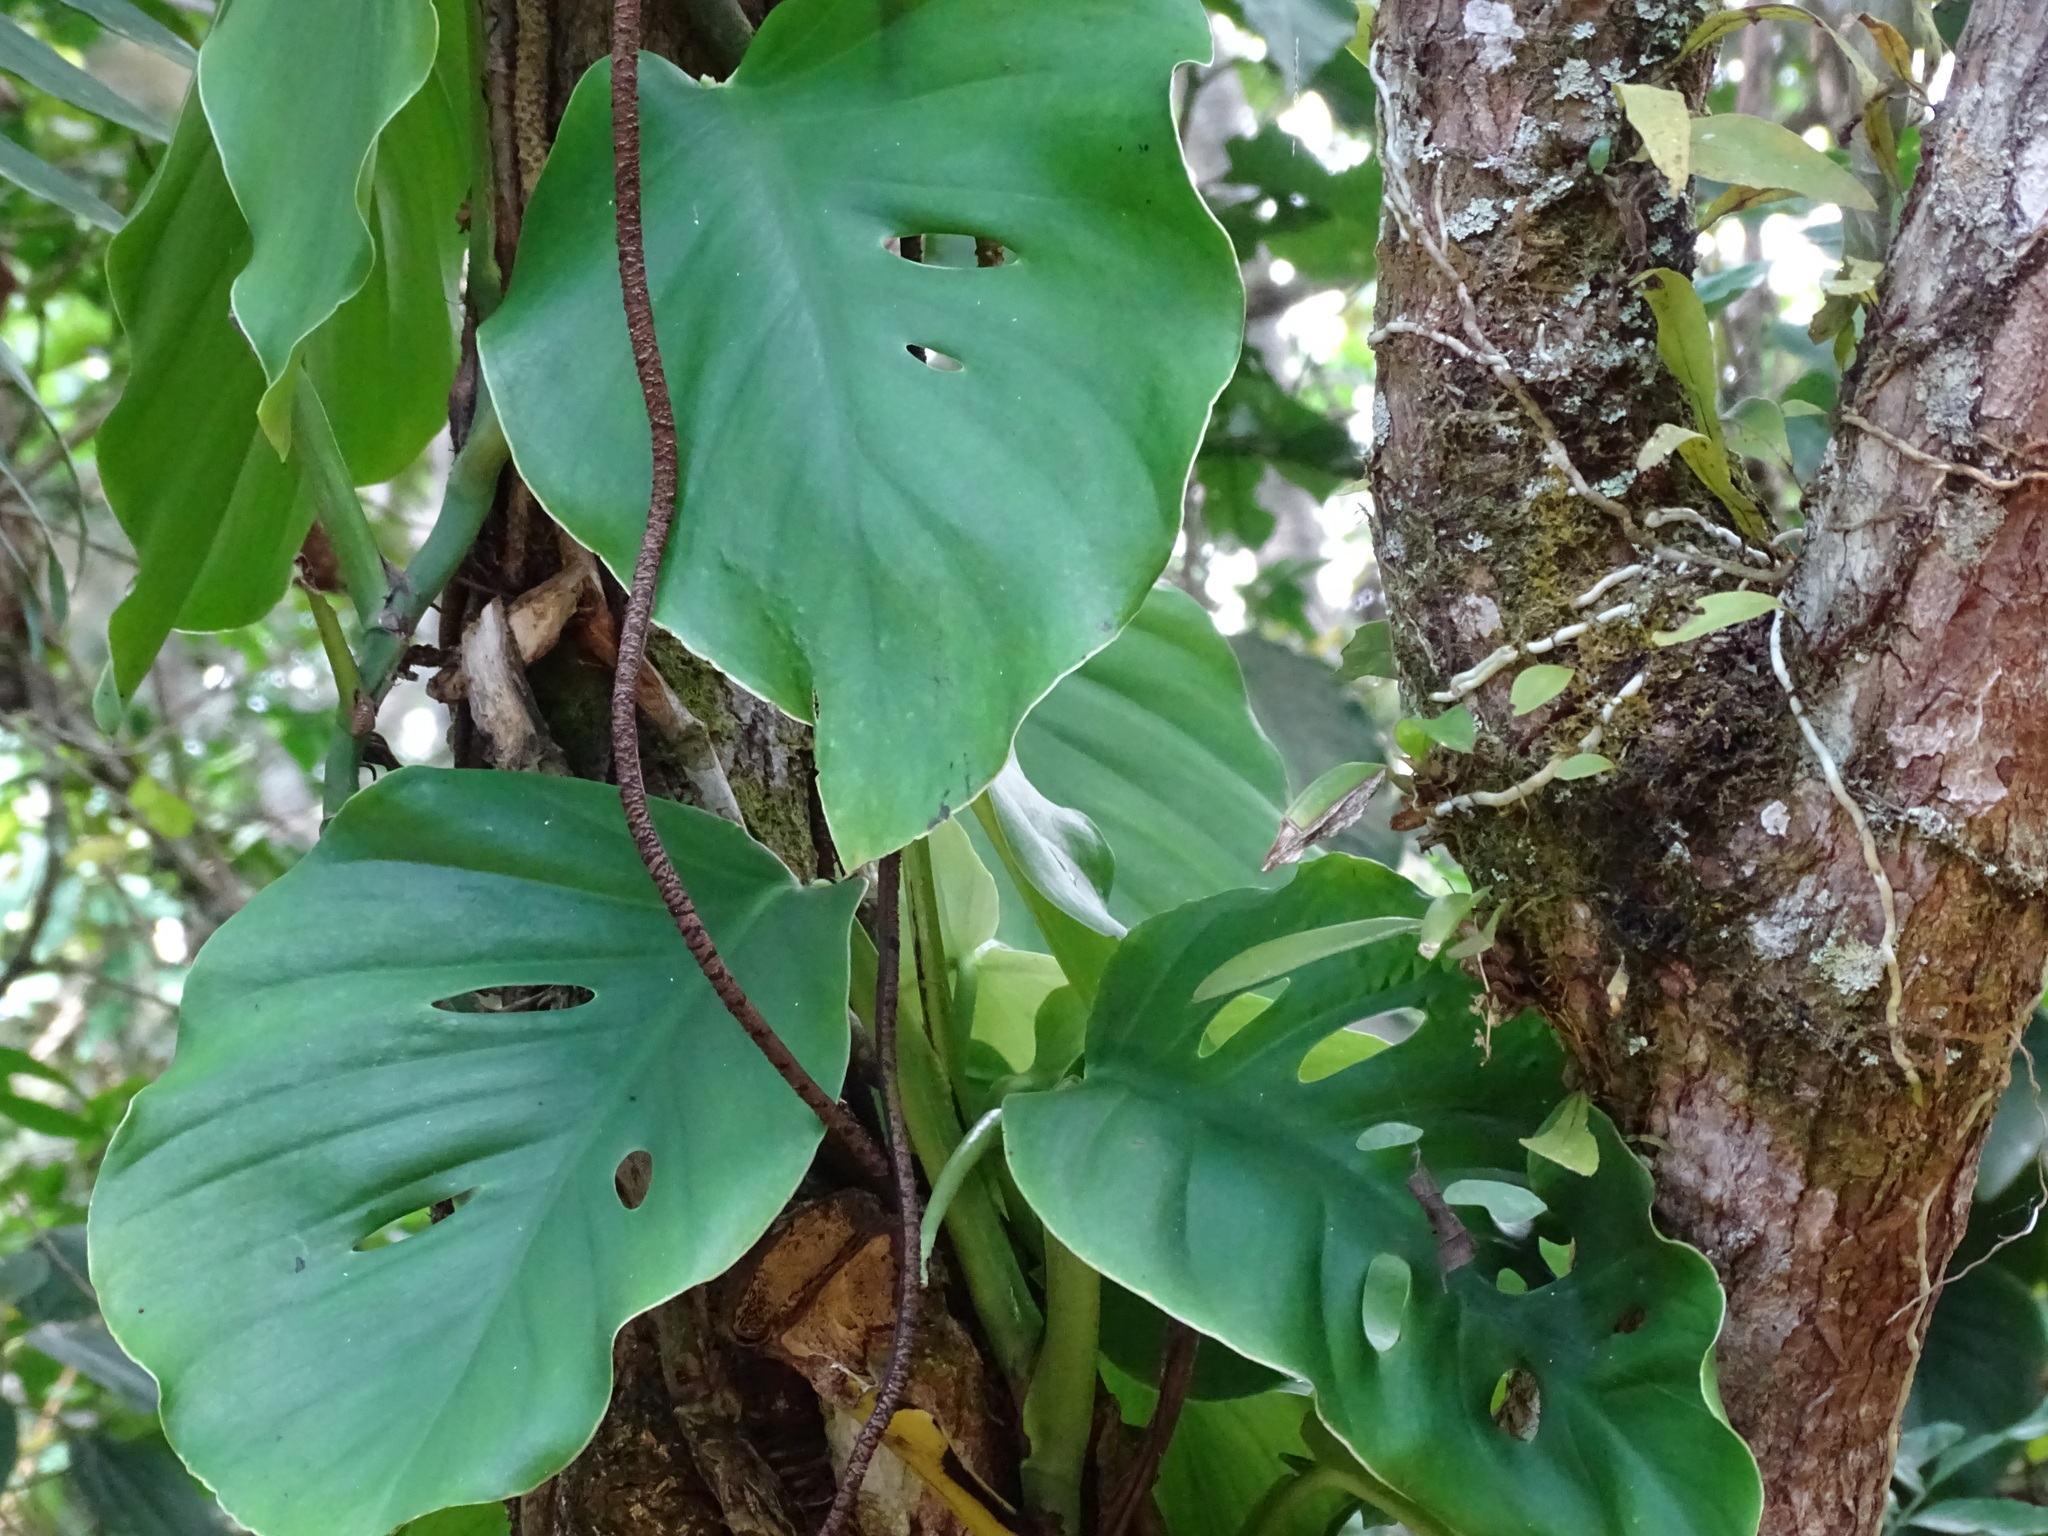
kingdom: Plantae
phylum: Tracheophyta
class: Liliopsida
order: Alismatales
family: Araceae
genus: Monstera
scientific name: Monstera acuminata
